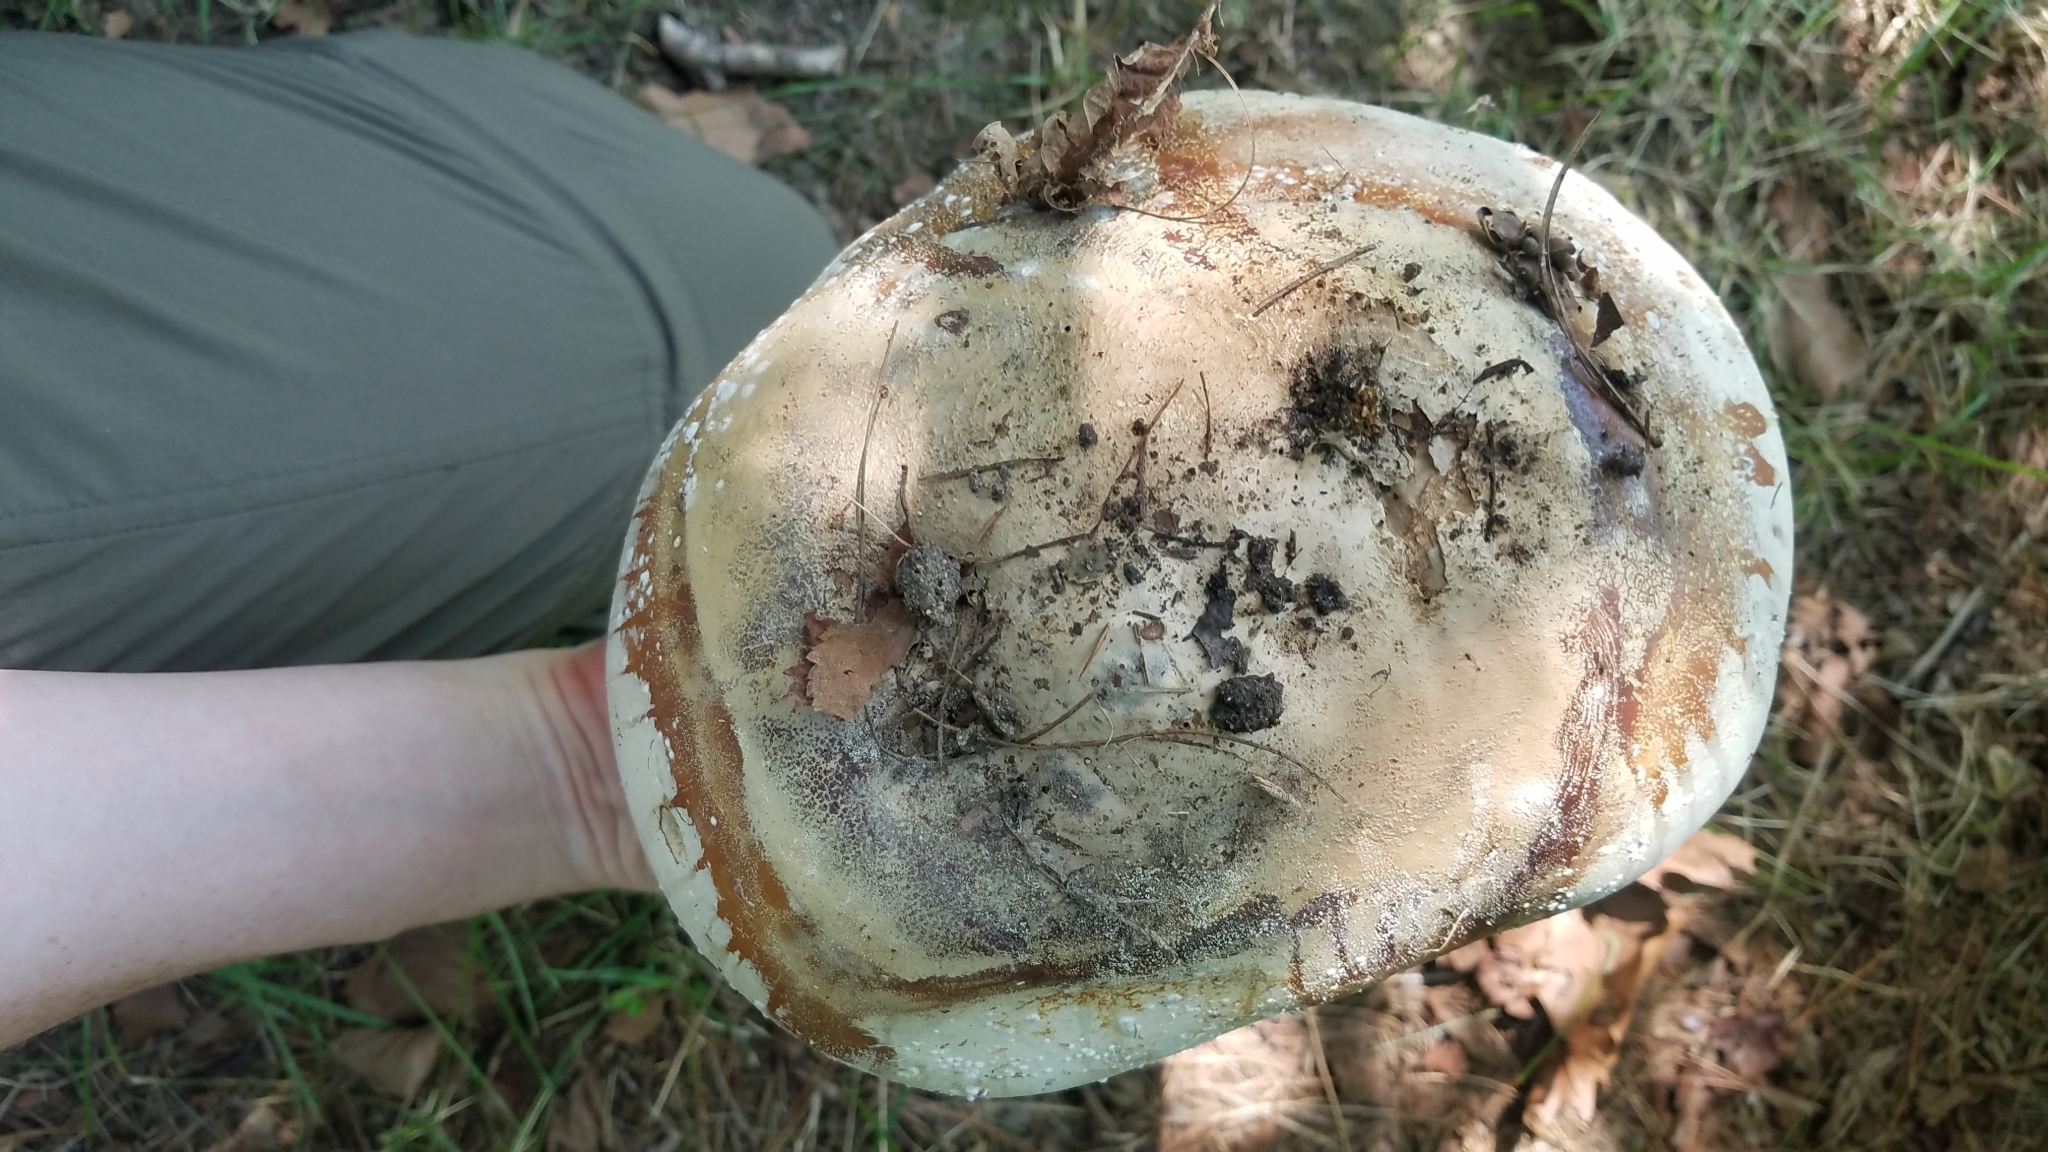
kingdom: Fungi
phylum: Basidiomycota
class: Agaricomycetes
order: Agaricales
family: Lycoperdaceae
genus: Calvatia
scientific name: Calvatia gigantea
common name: Giant puffball
